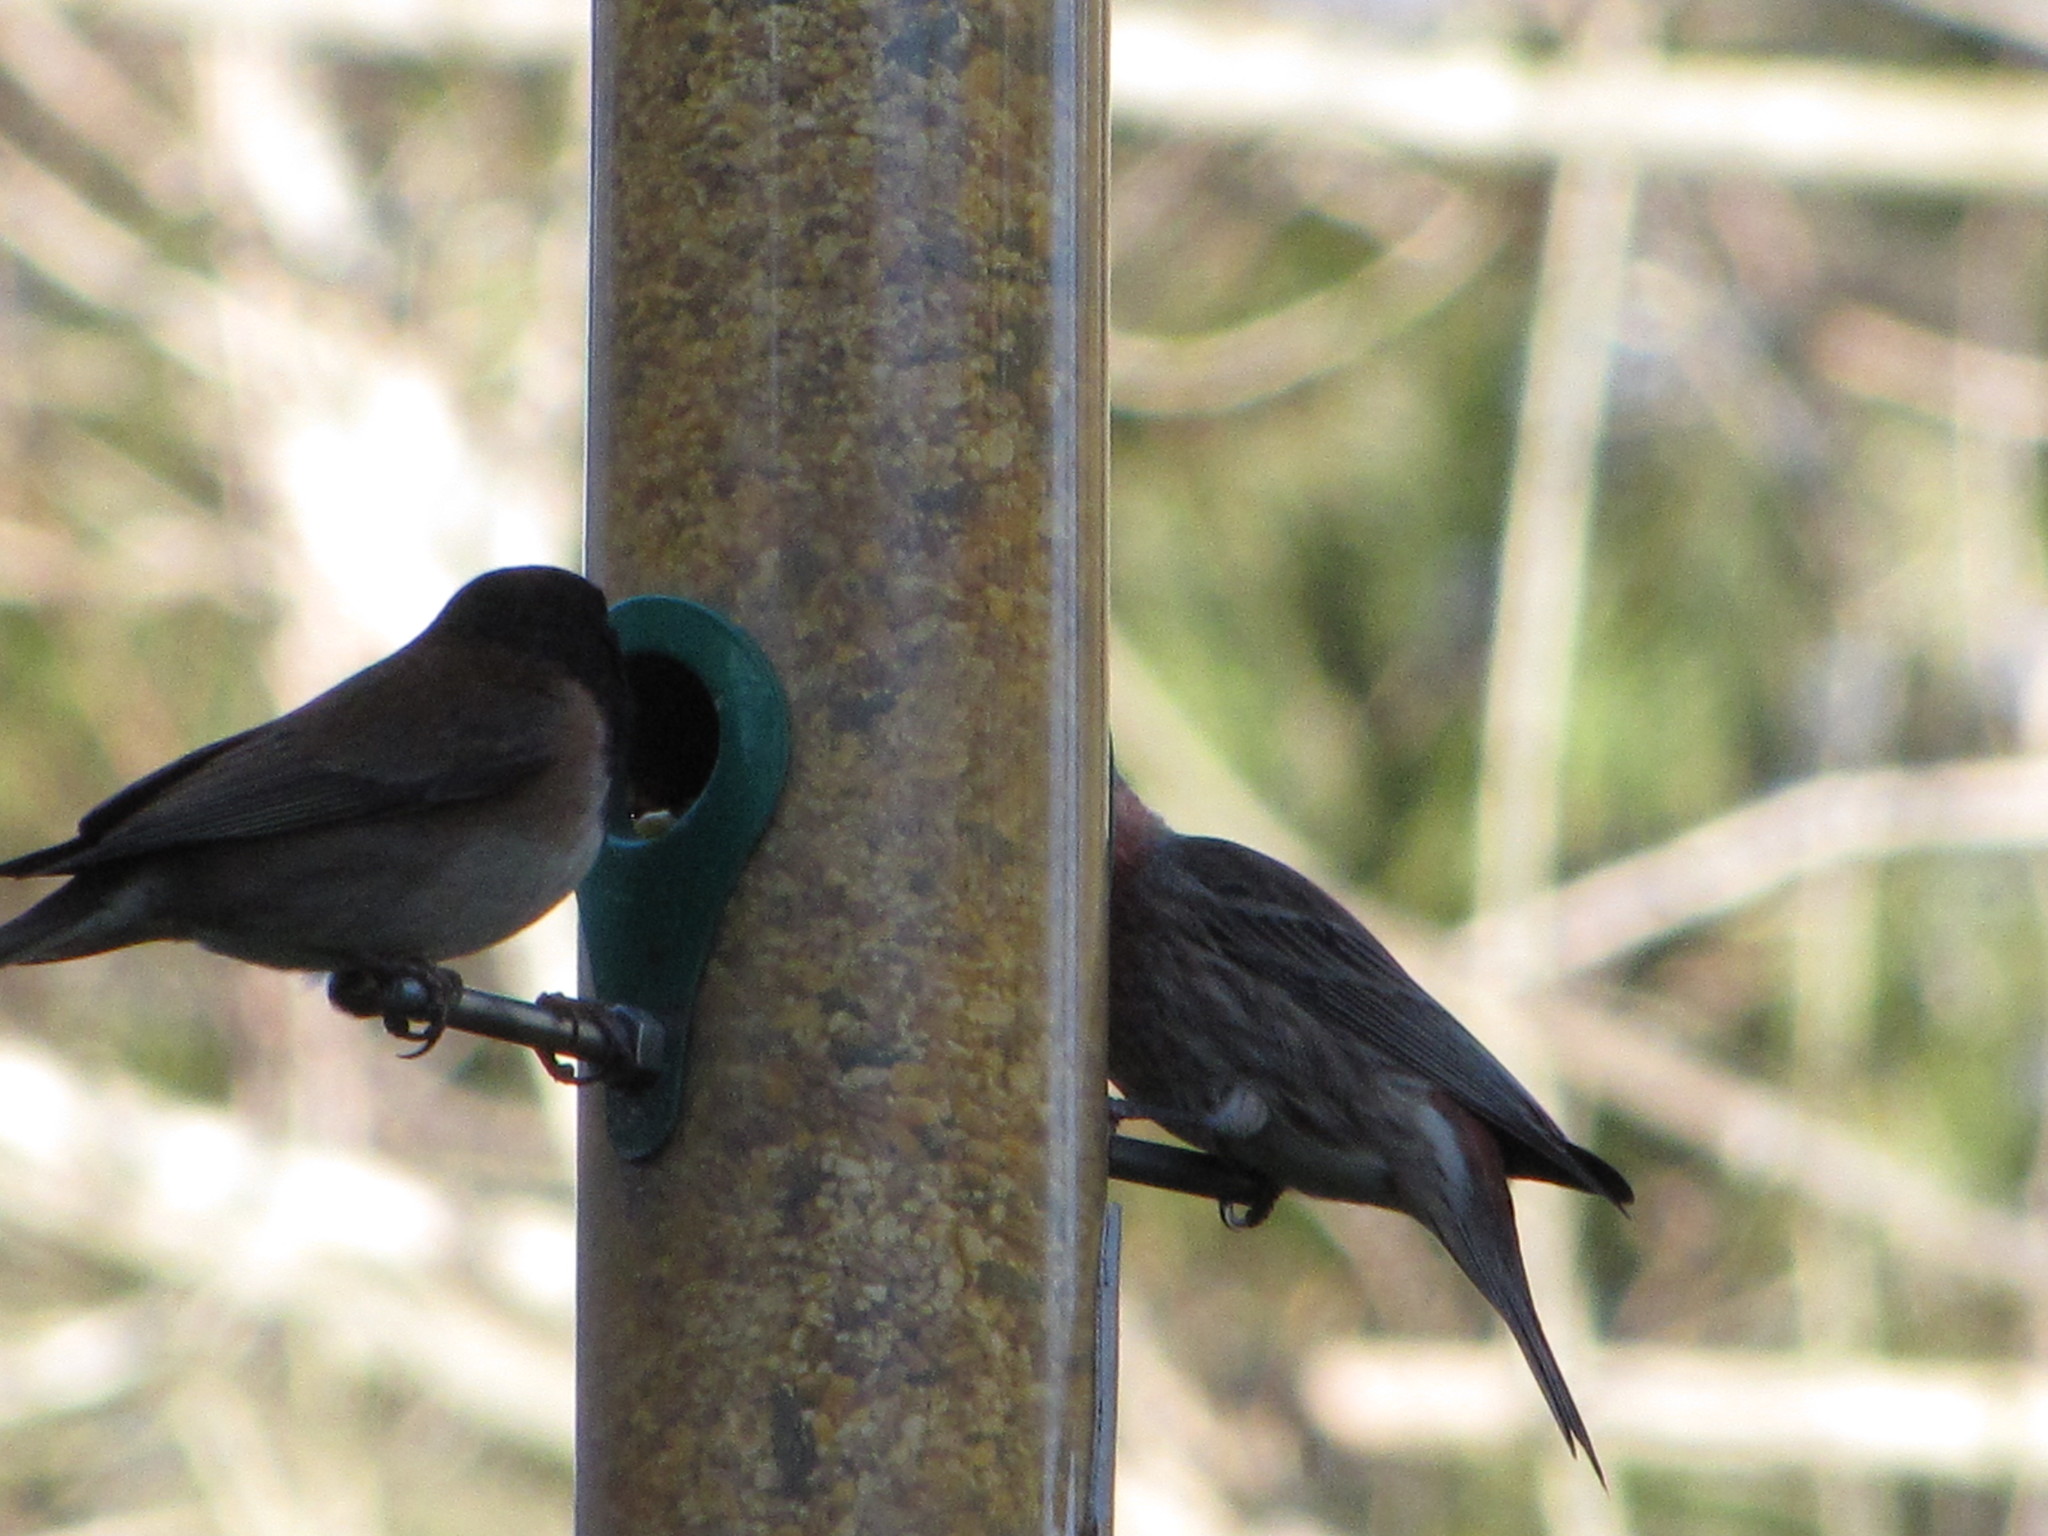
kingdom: Animalia
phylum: Chordata
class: Aves
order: Passeriformes
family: Fringillidae
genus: Haemorhous
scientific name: Haemorhous mexicanus
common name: House finch
